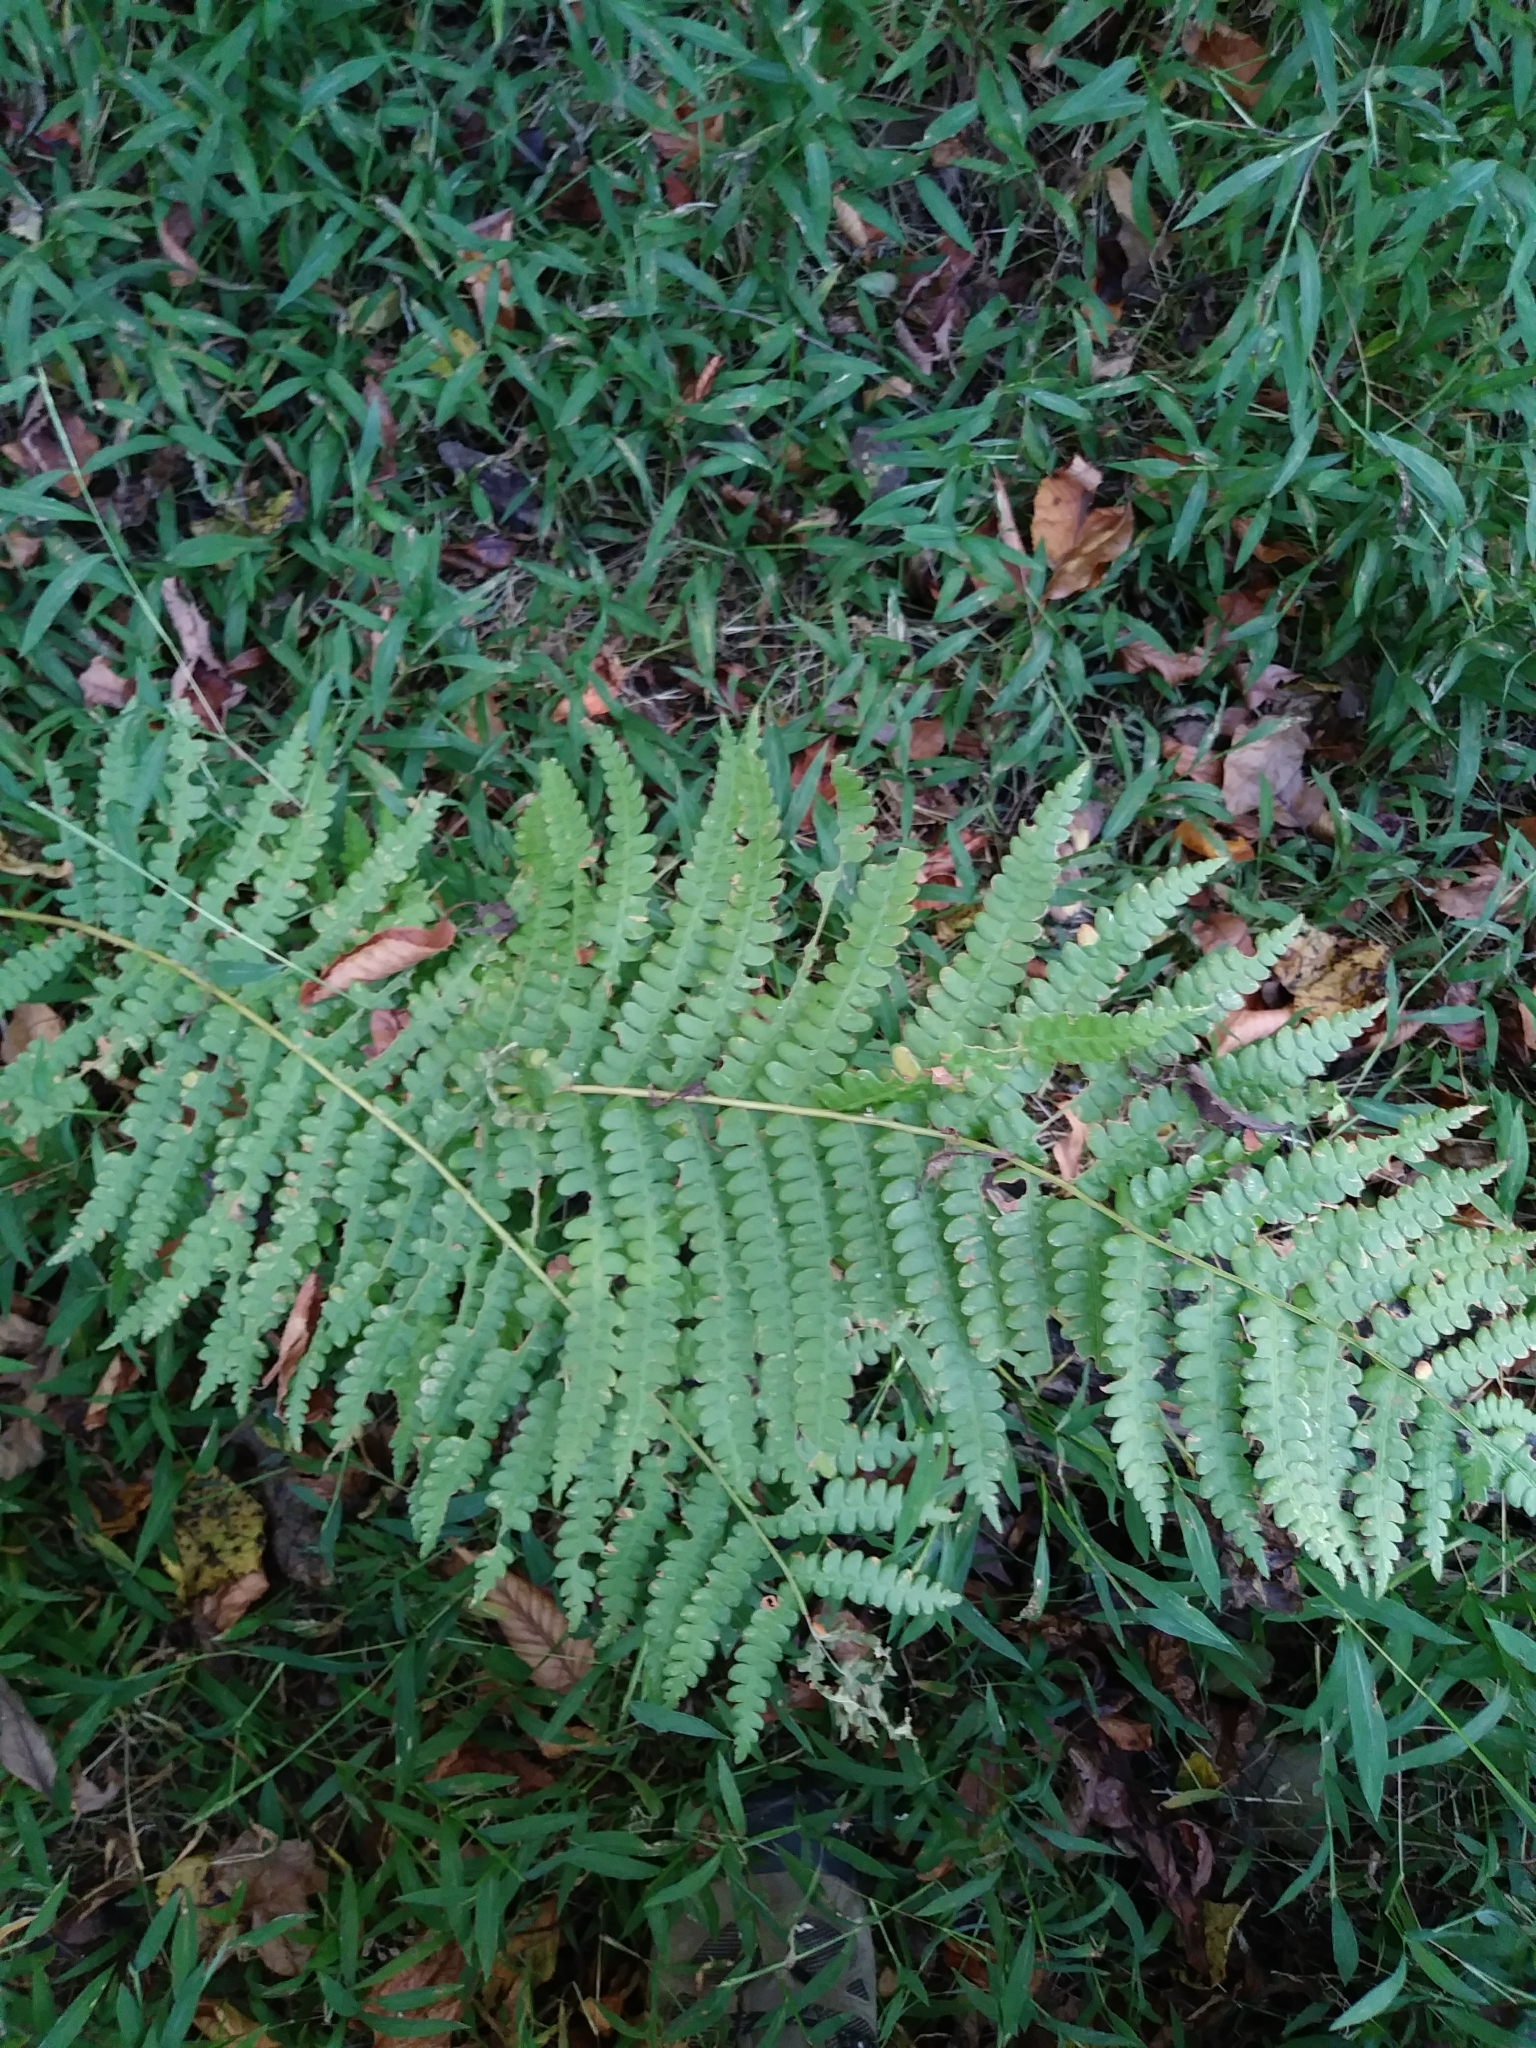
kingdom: Plantae
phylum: Tracheophyta
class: Polypodiopsida
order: Osmundales
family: Osmundaceae
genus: Osmundastrum
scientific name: Osmundastrum cinnamomeum
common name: Cinnamon fern
